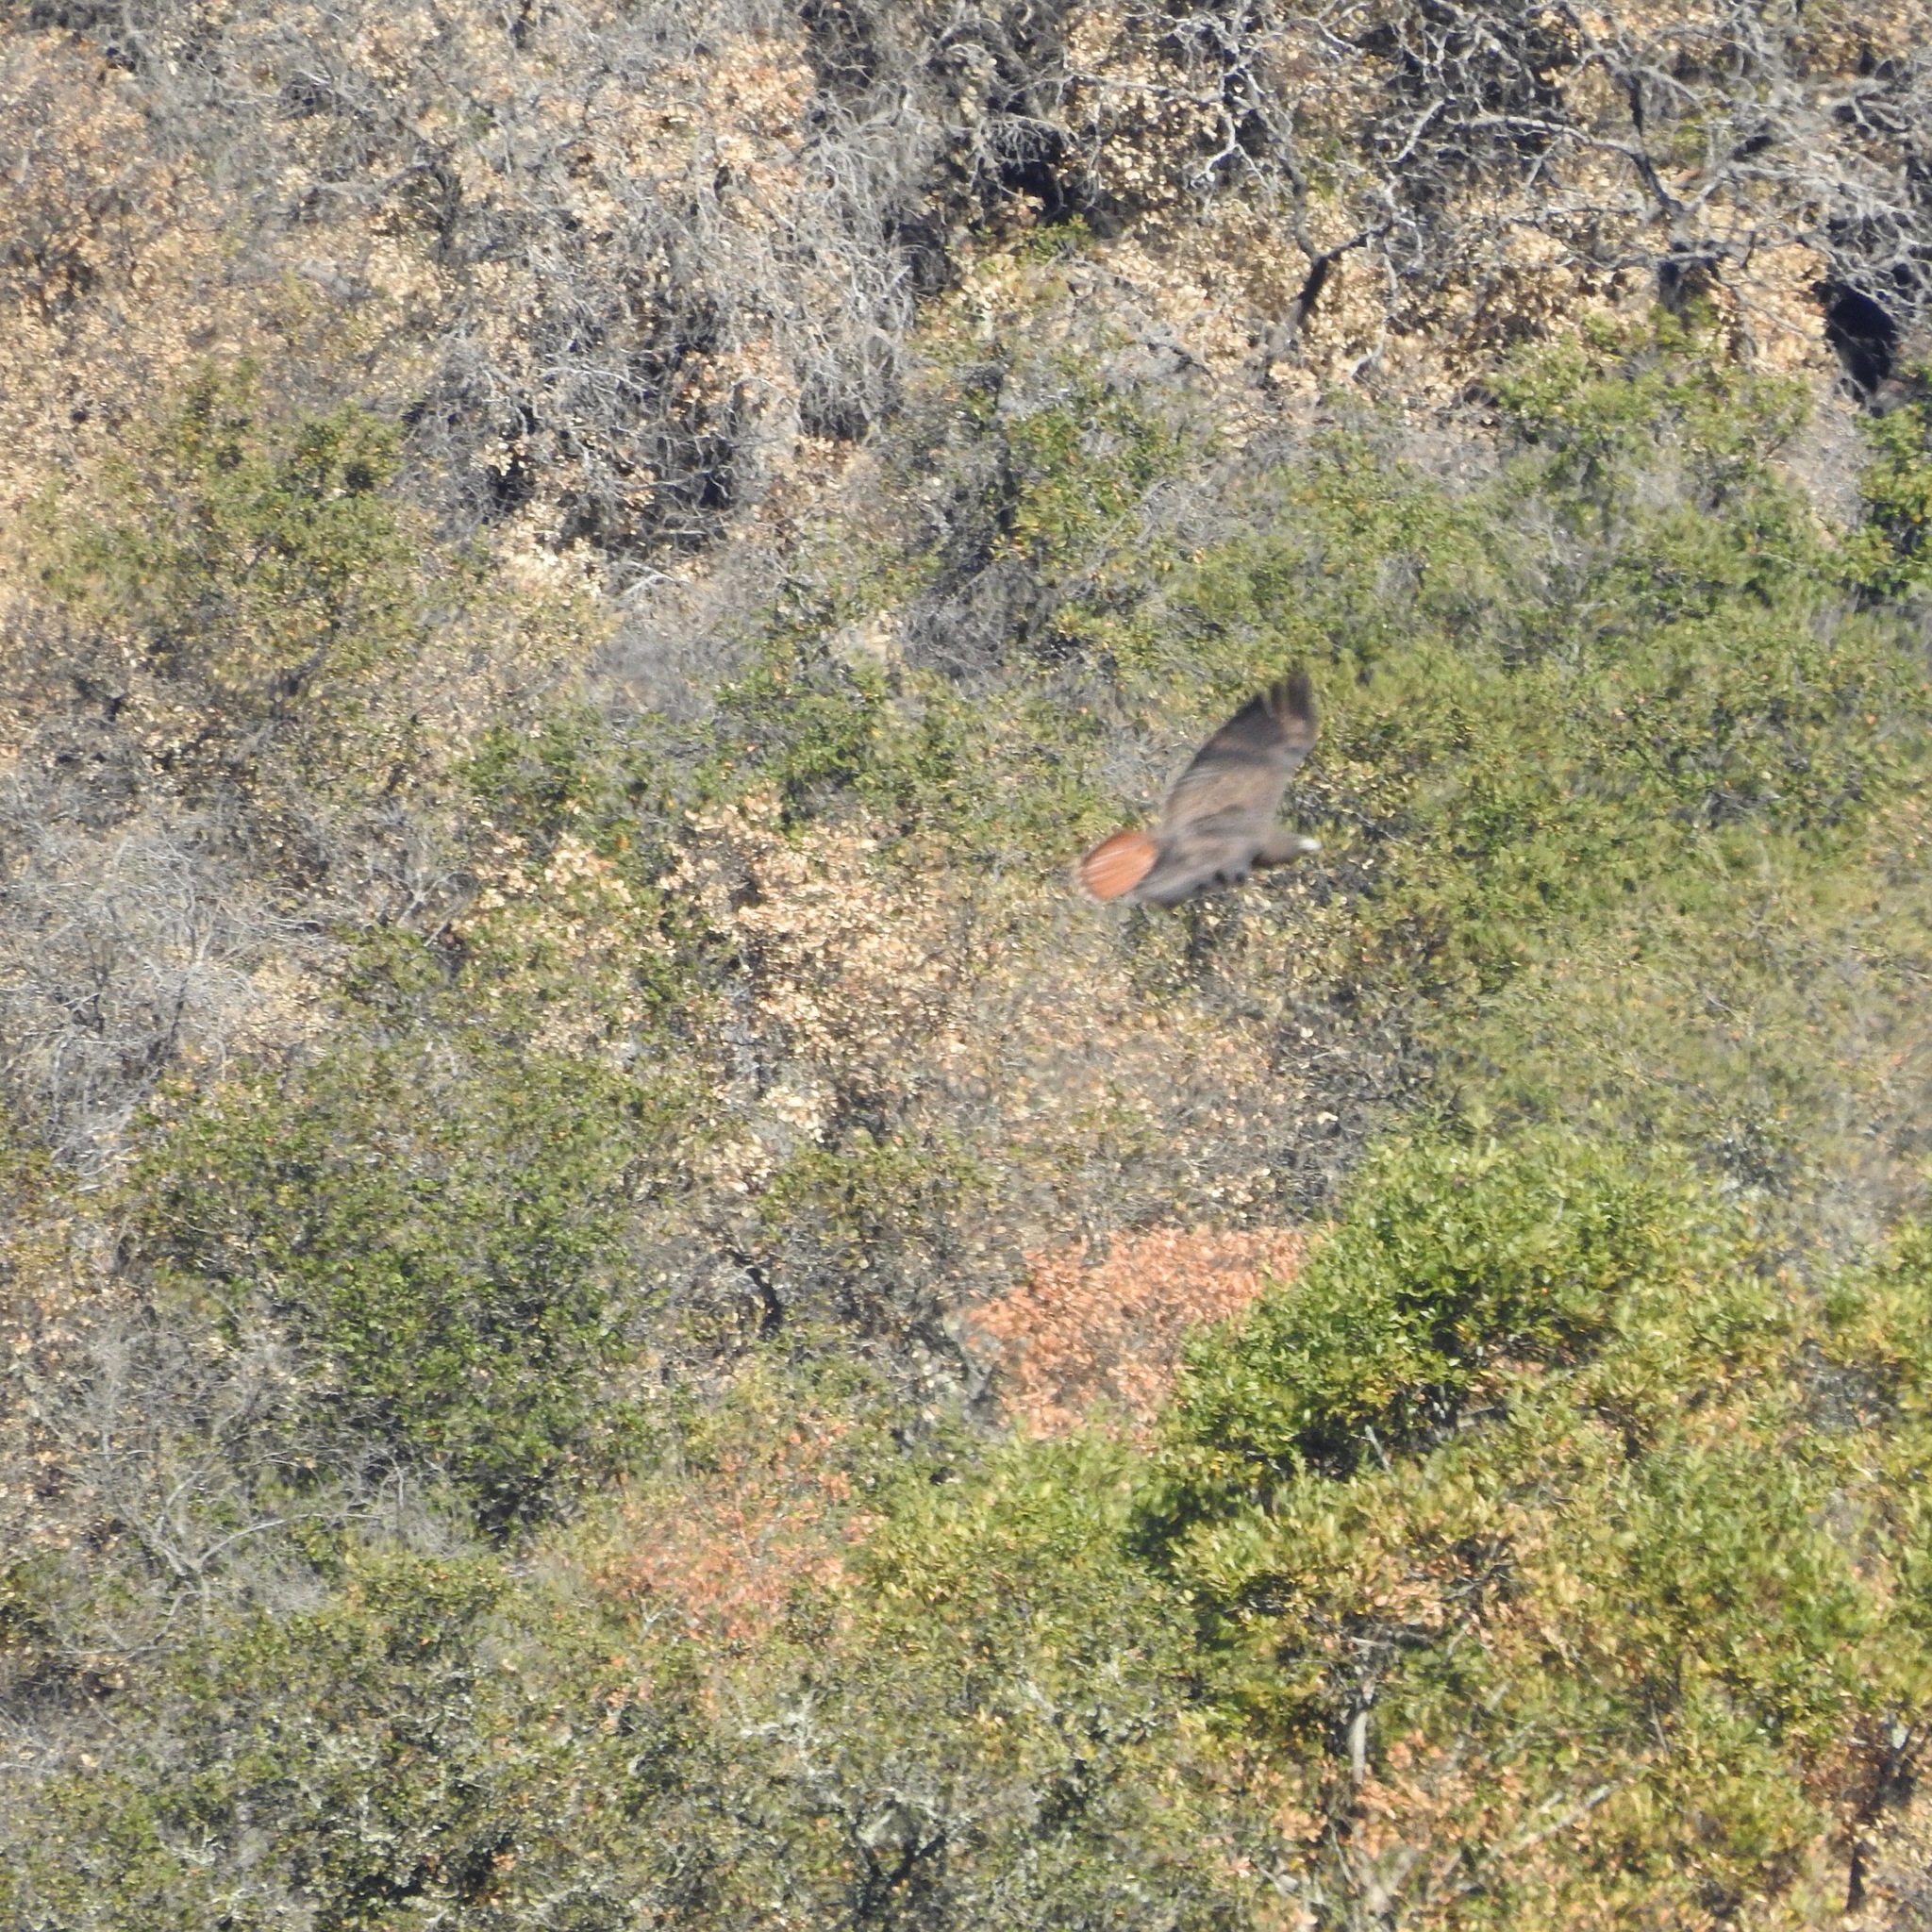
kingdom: Animalia
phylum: Chordata
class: Aves
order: Accipitriformes
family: Accipitridae
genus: Buteo
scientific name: Buteo jamaicensis
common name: Red-tailed hawk
